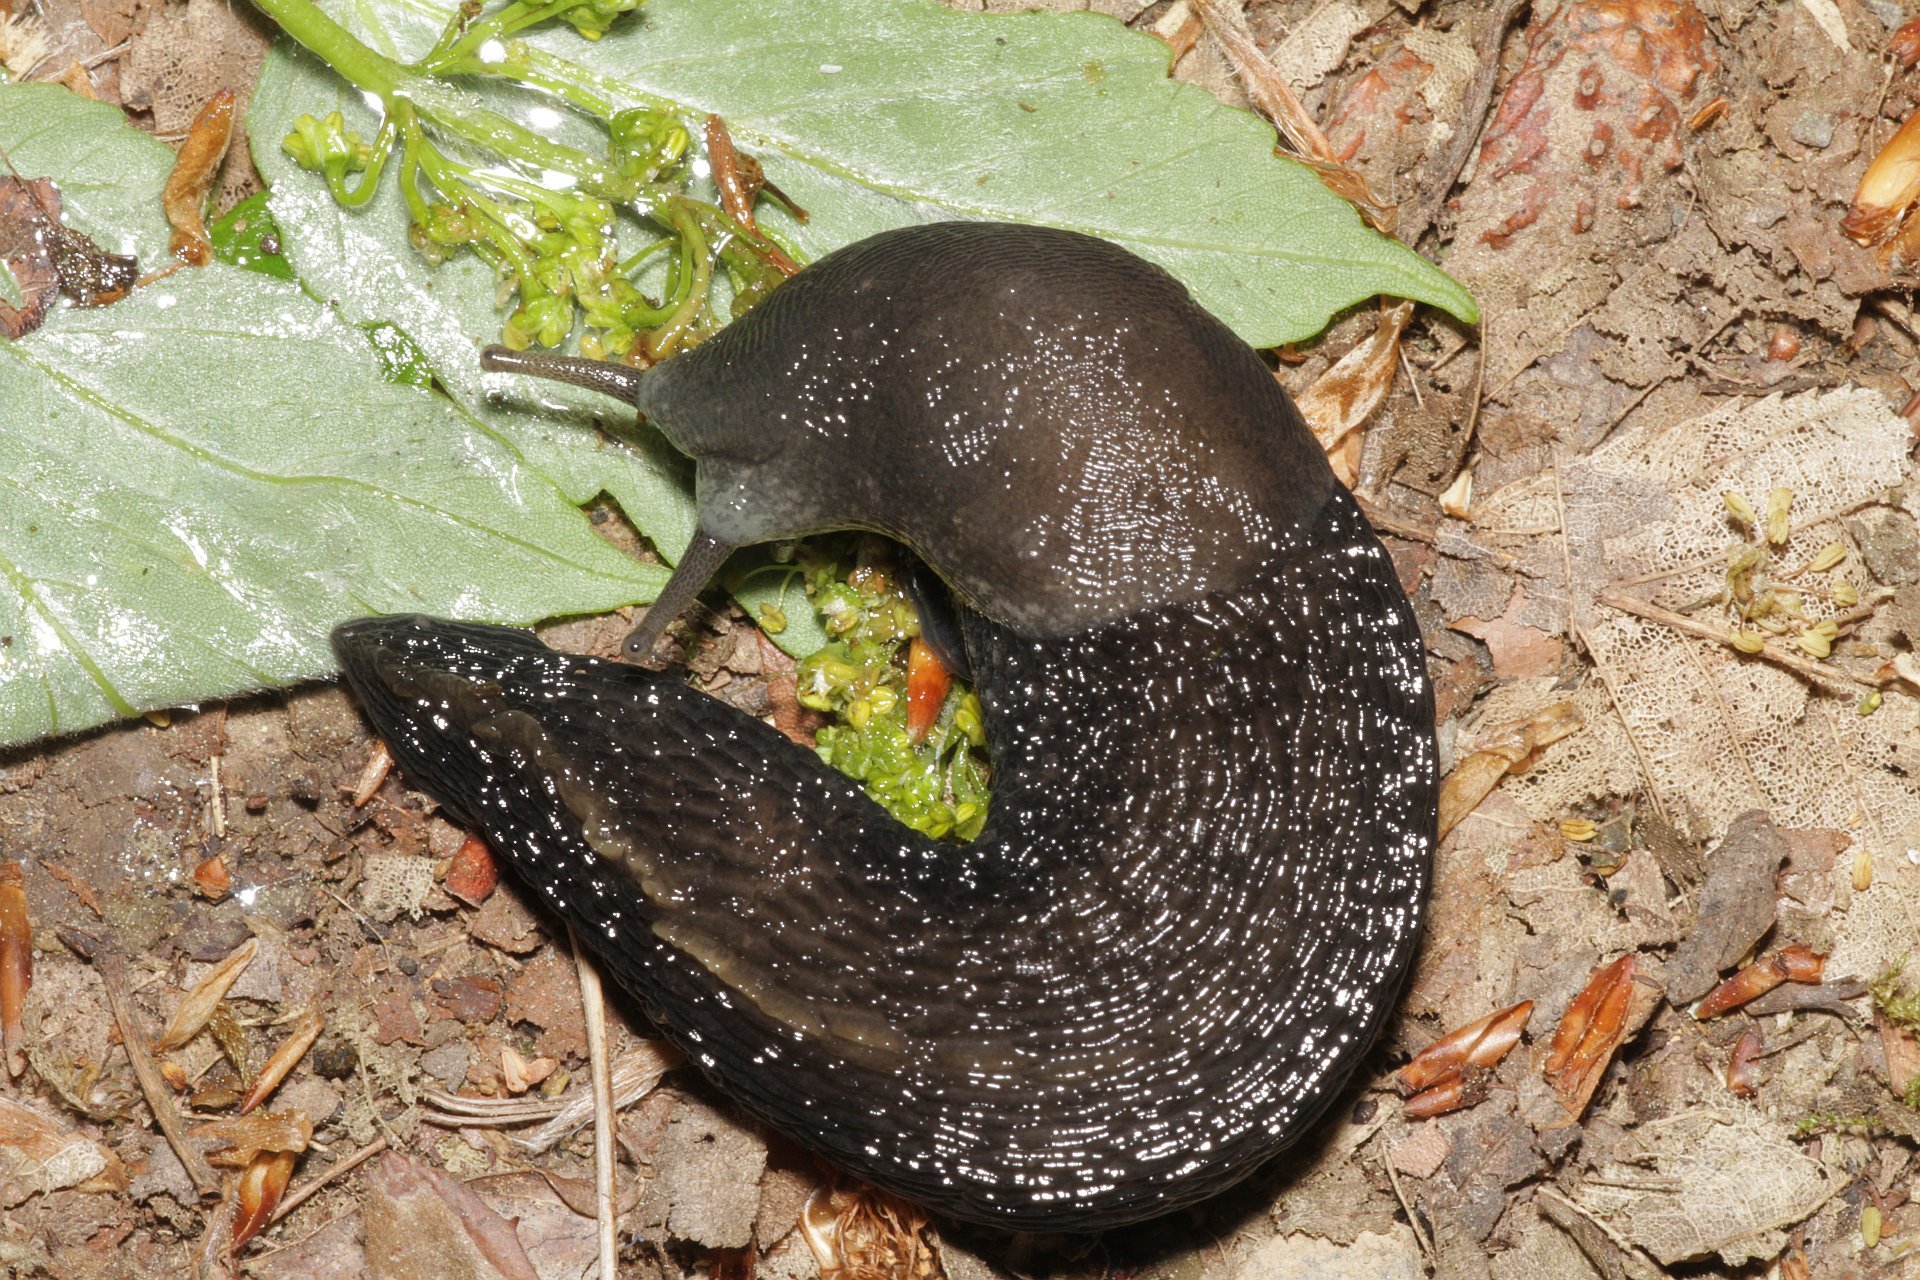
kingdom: Animalia
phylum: Mollusca
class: Gastropoda
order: Stylommatophora
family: Limacidae
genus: Limax
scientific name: Limax cinereoniger
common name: Ash-black slug
